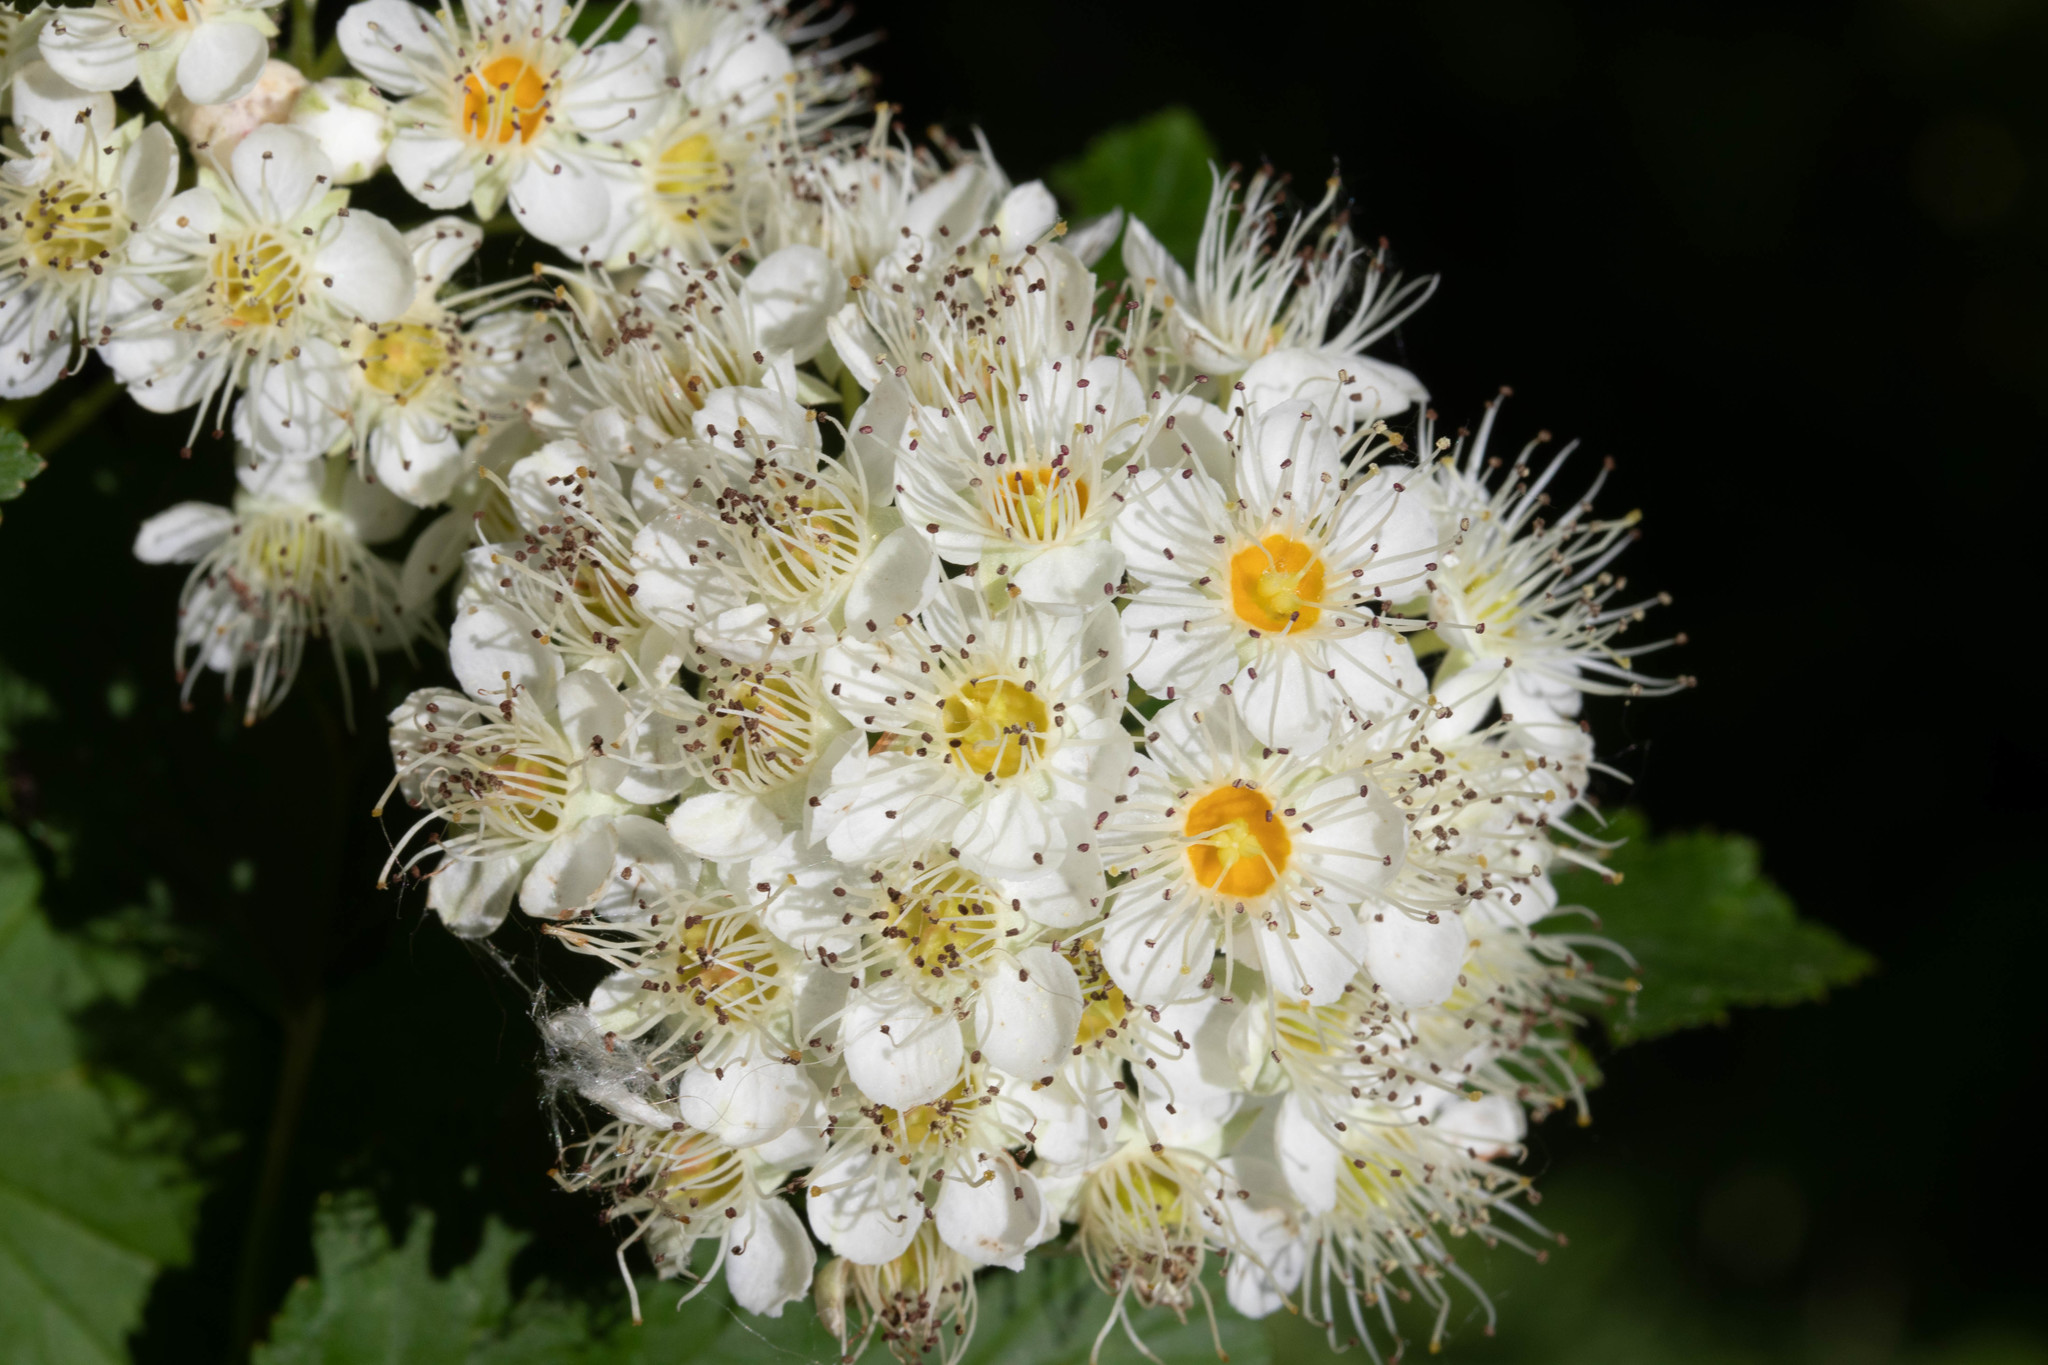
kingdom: Plantae
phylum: Tracheophyta
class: Magnoliopsida
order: Rosales
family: Rosaceae
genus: Physocarpus
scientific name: Physocarpus opulifolius
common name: Ninebark
